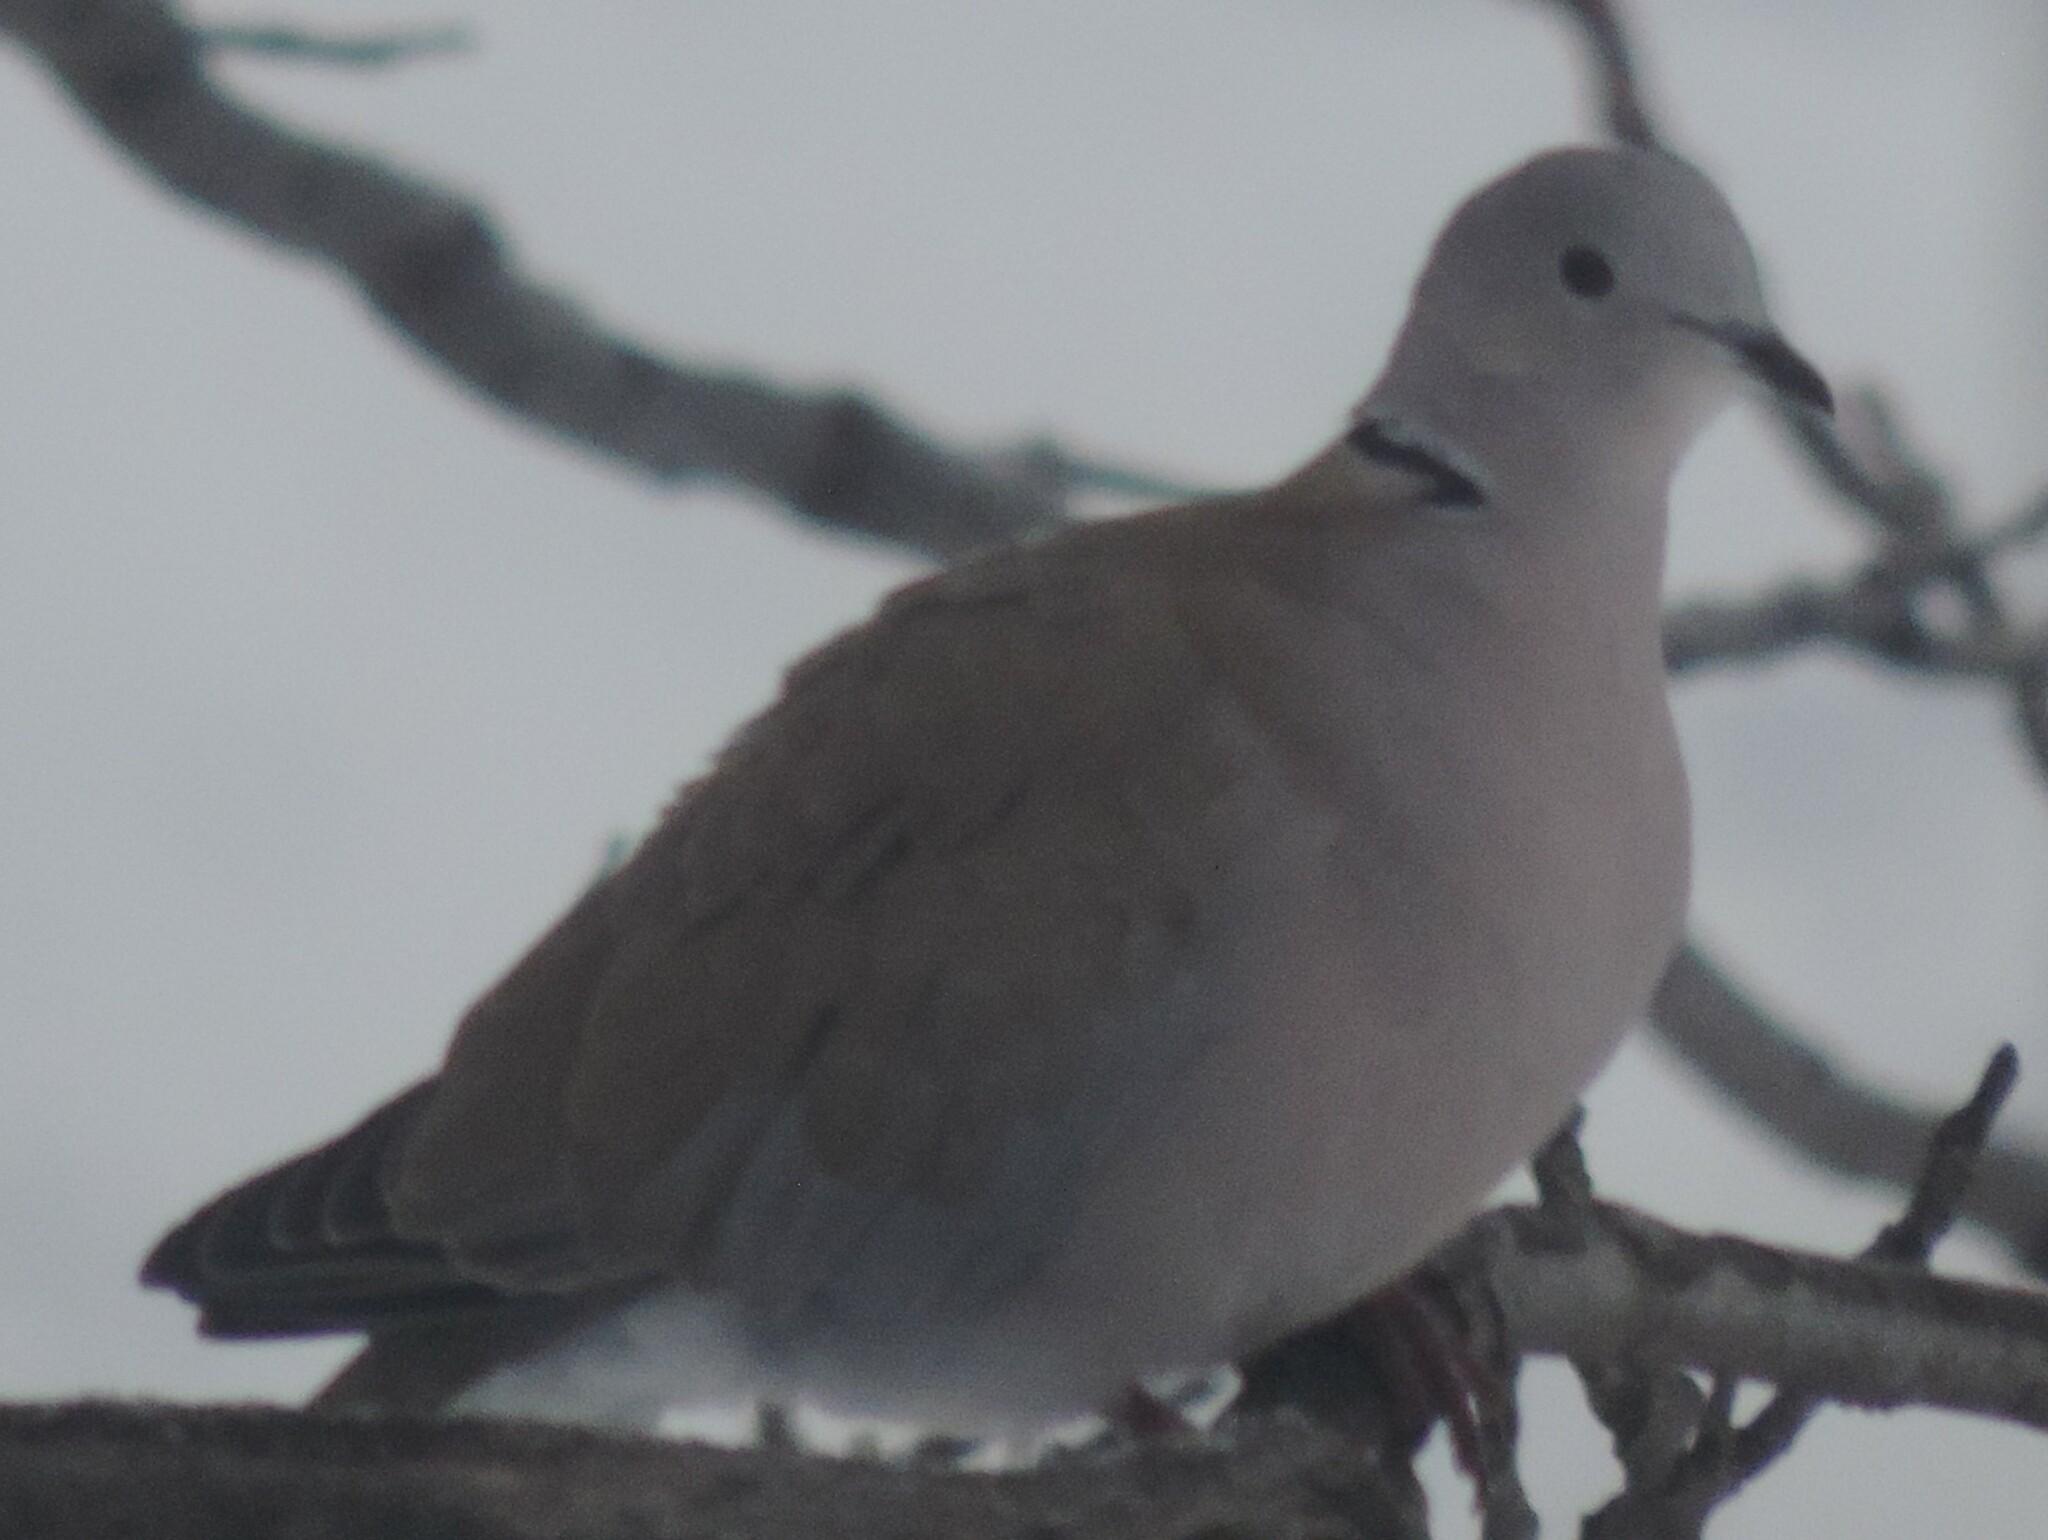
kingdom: Animalia
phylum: Chordata
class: Aves
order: Columbiformes
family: Columbidae
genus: Streptopelia
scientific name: Streptopelia decaocto
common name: Eurasian collared dove
